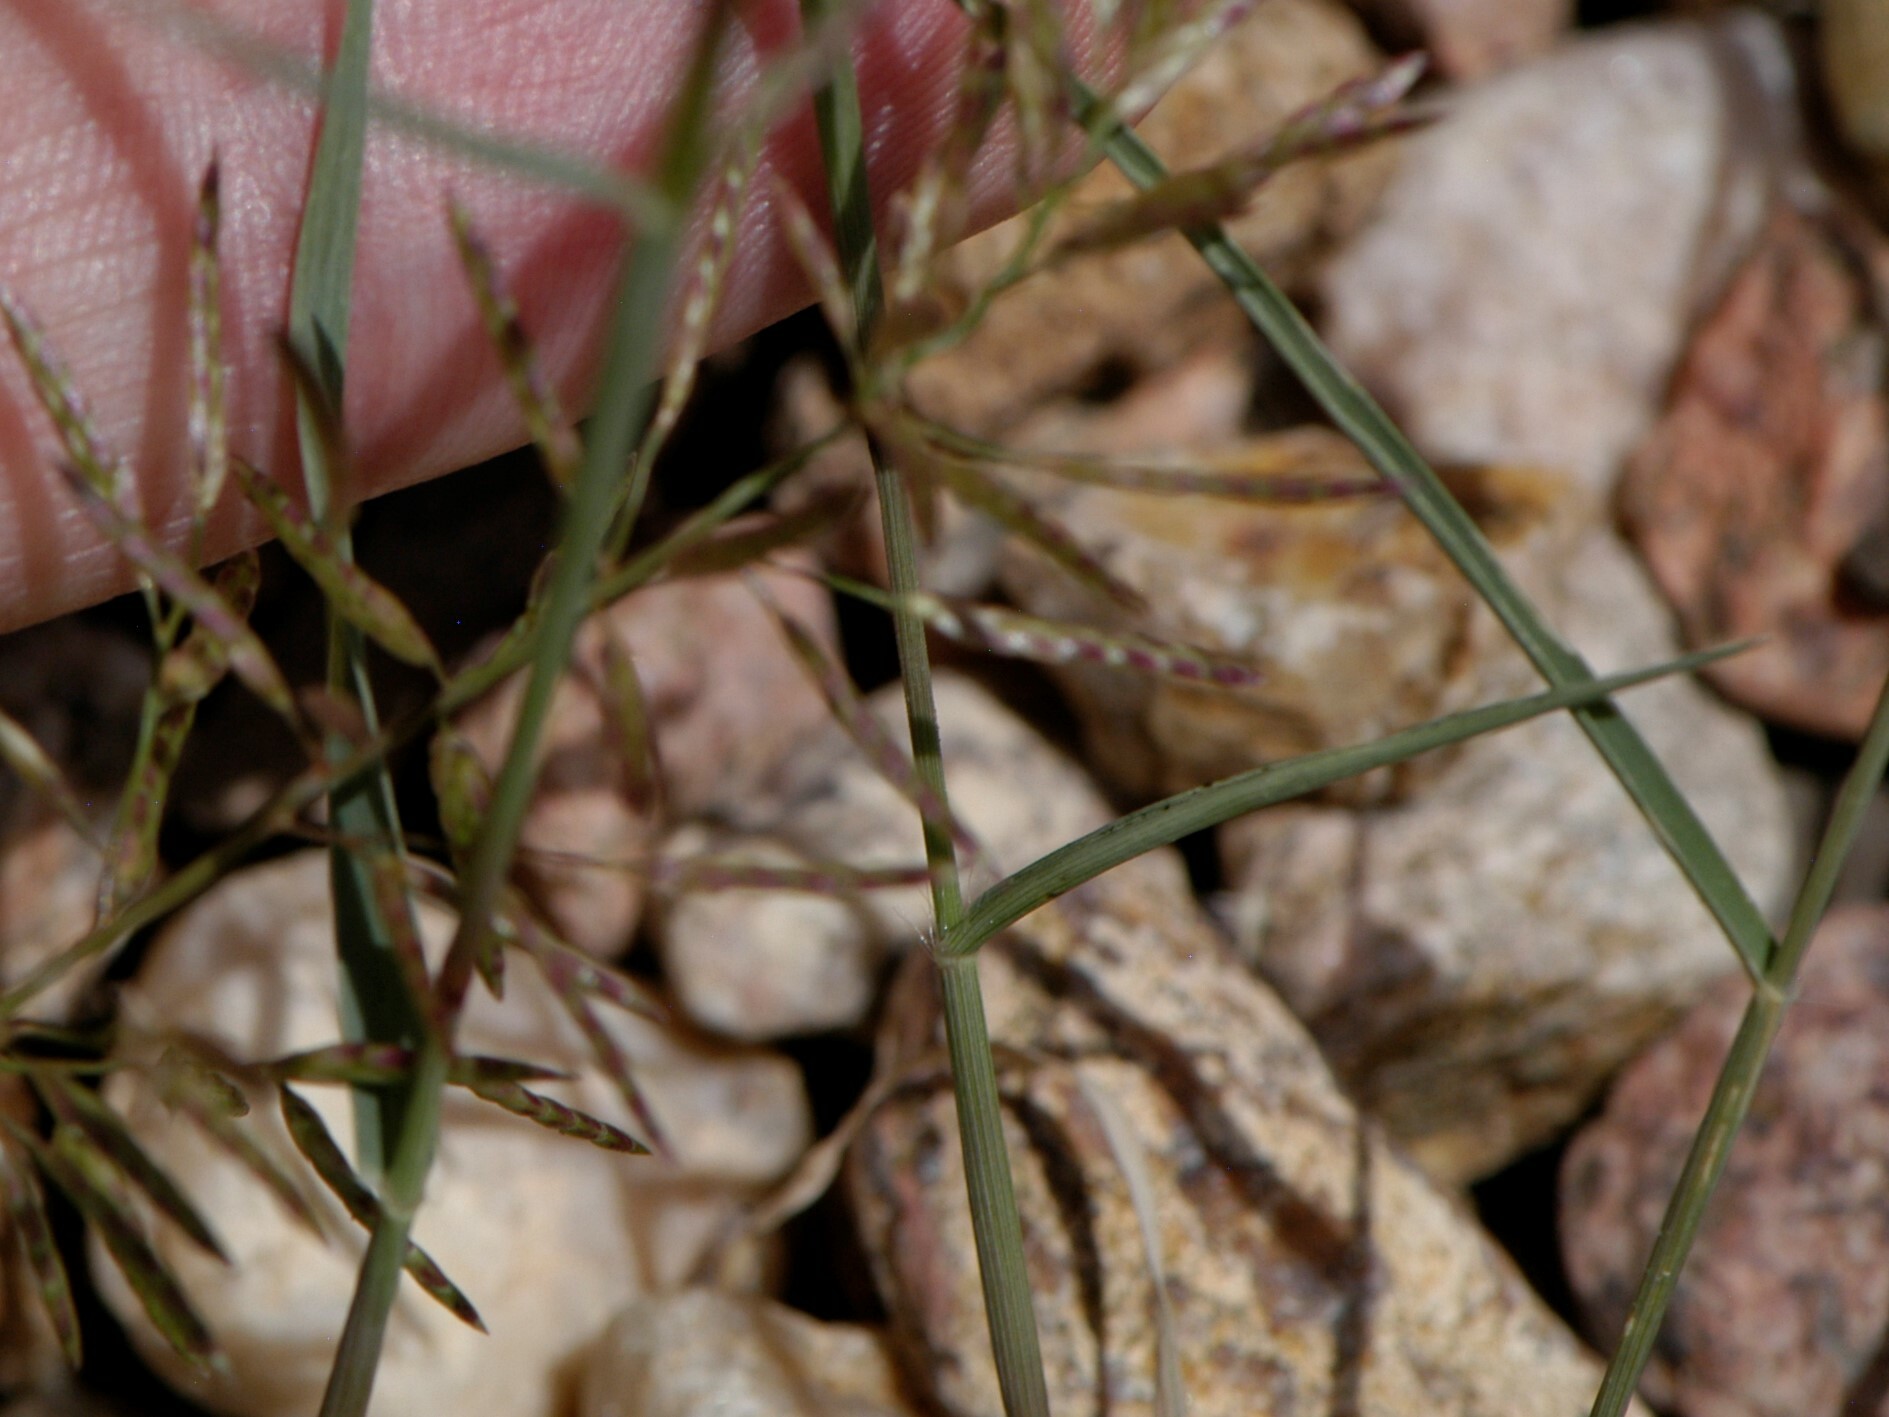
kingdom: Plantae
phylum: Tracheophyta
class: Liliopsida
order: Poales
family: Poaceae
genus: Bouteloua
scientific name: Bouteloua barbata
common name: Six-weeks grama
